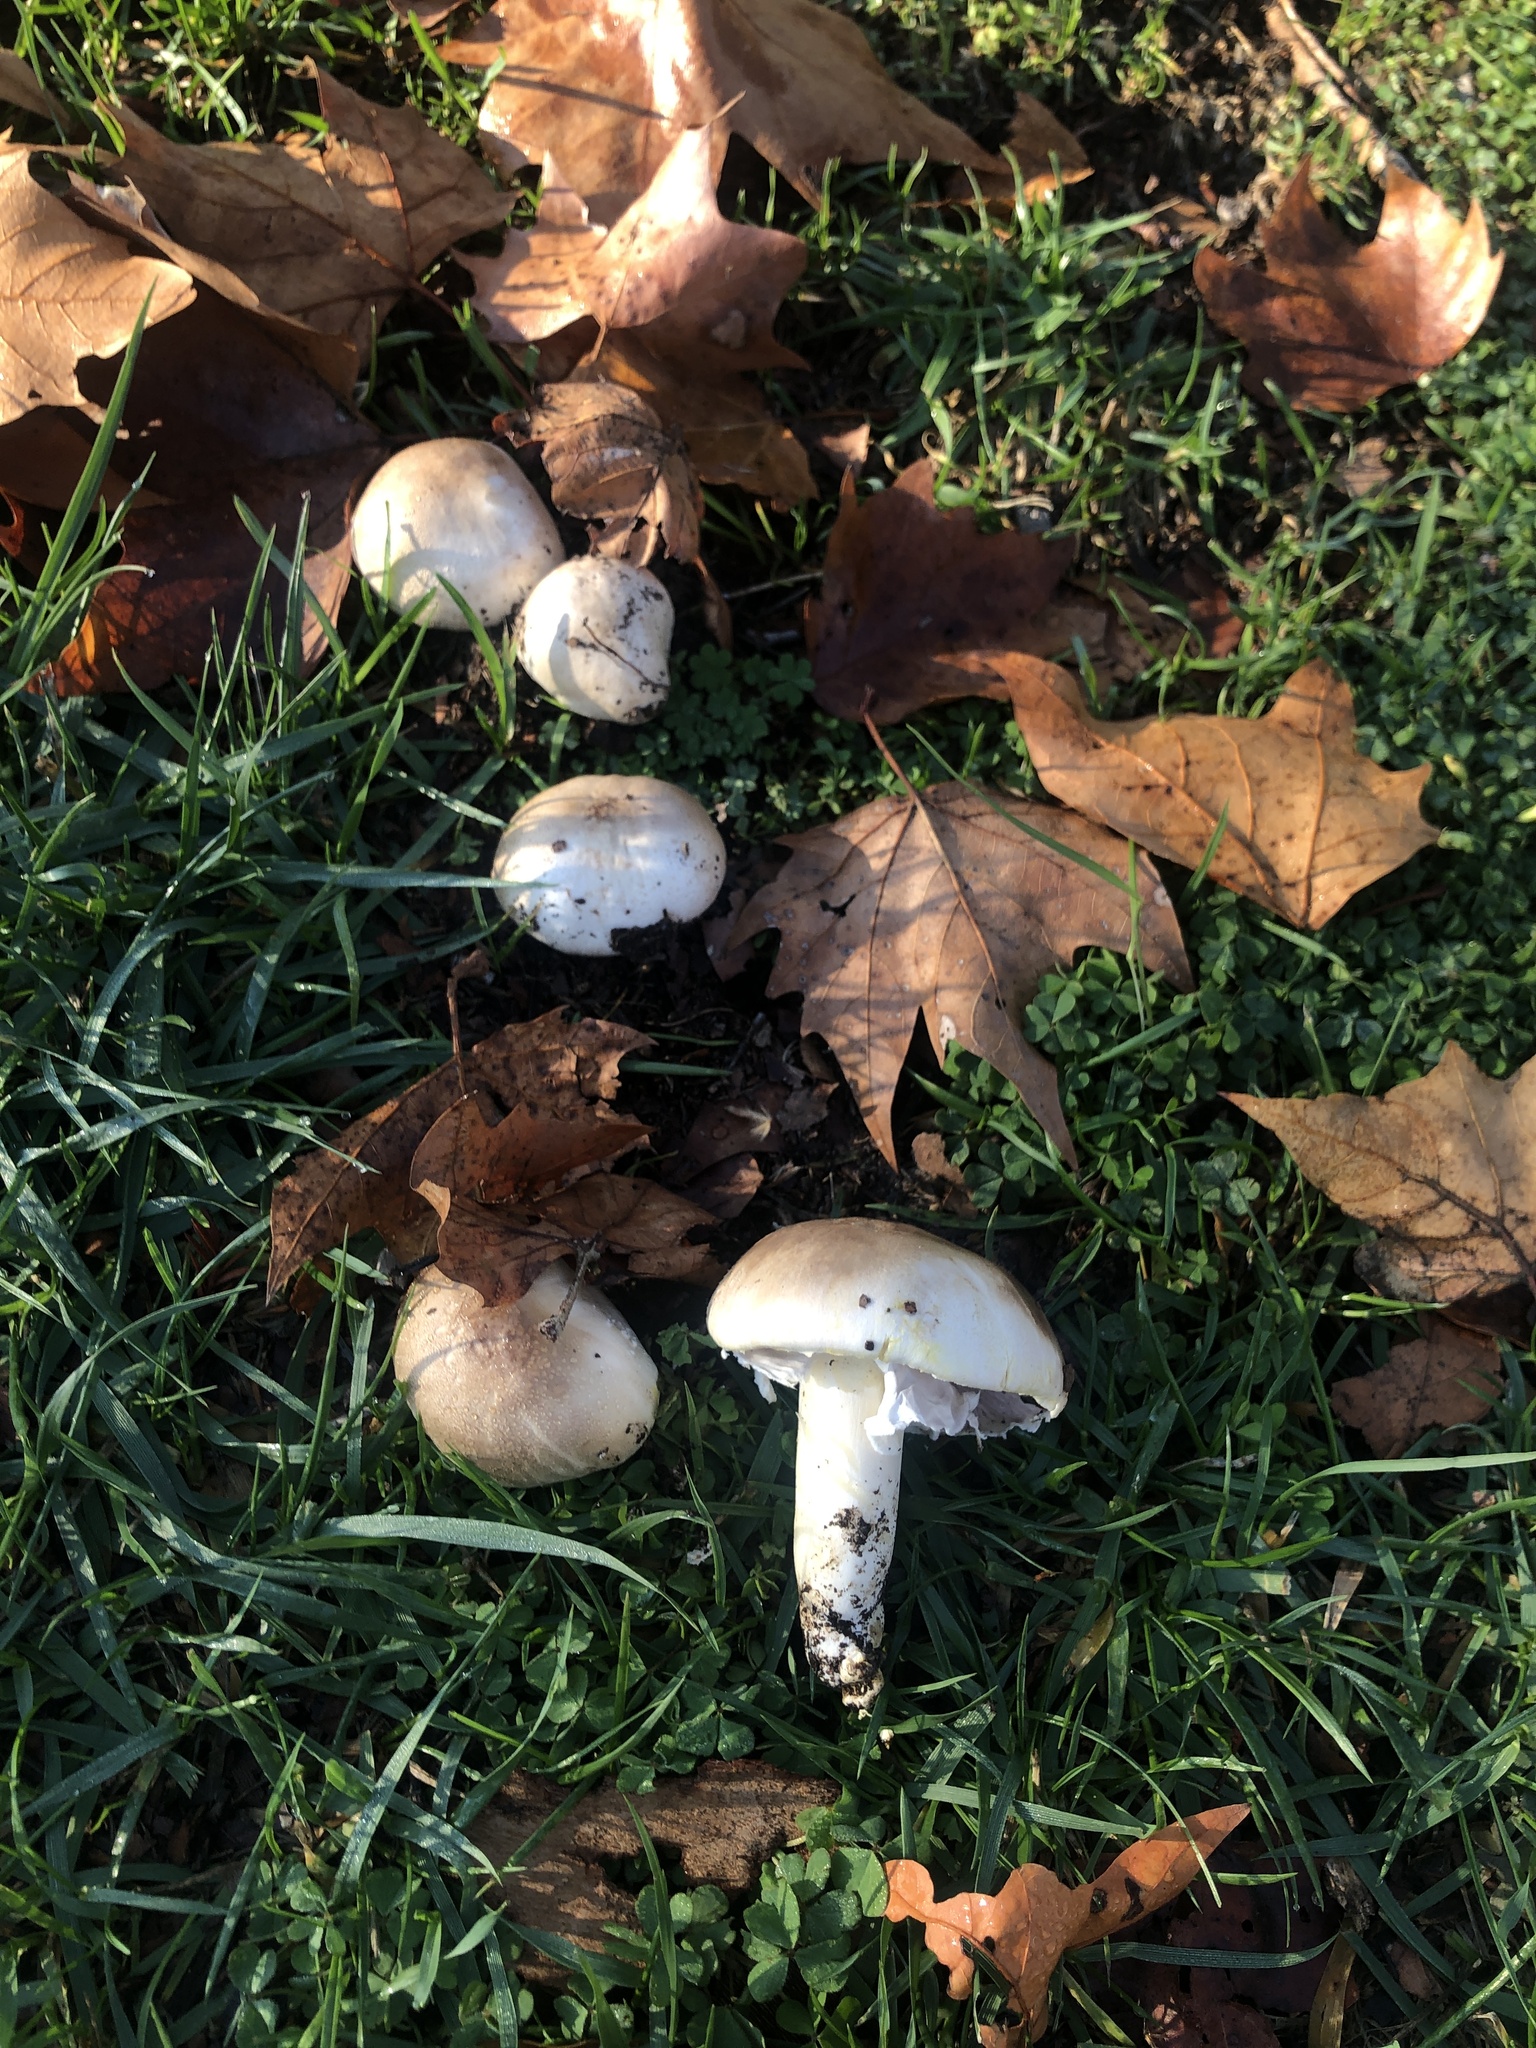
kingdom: Fungi
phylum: Basidiomycota
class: Agaricomycetes
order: Agaricales
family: Agaricaceae
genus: Agaricus
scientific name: Agaricus xanthodermus
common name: Yellow stainer
